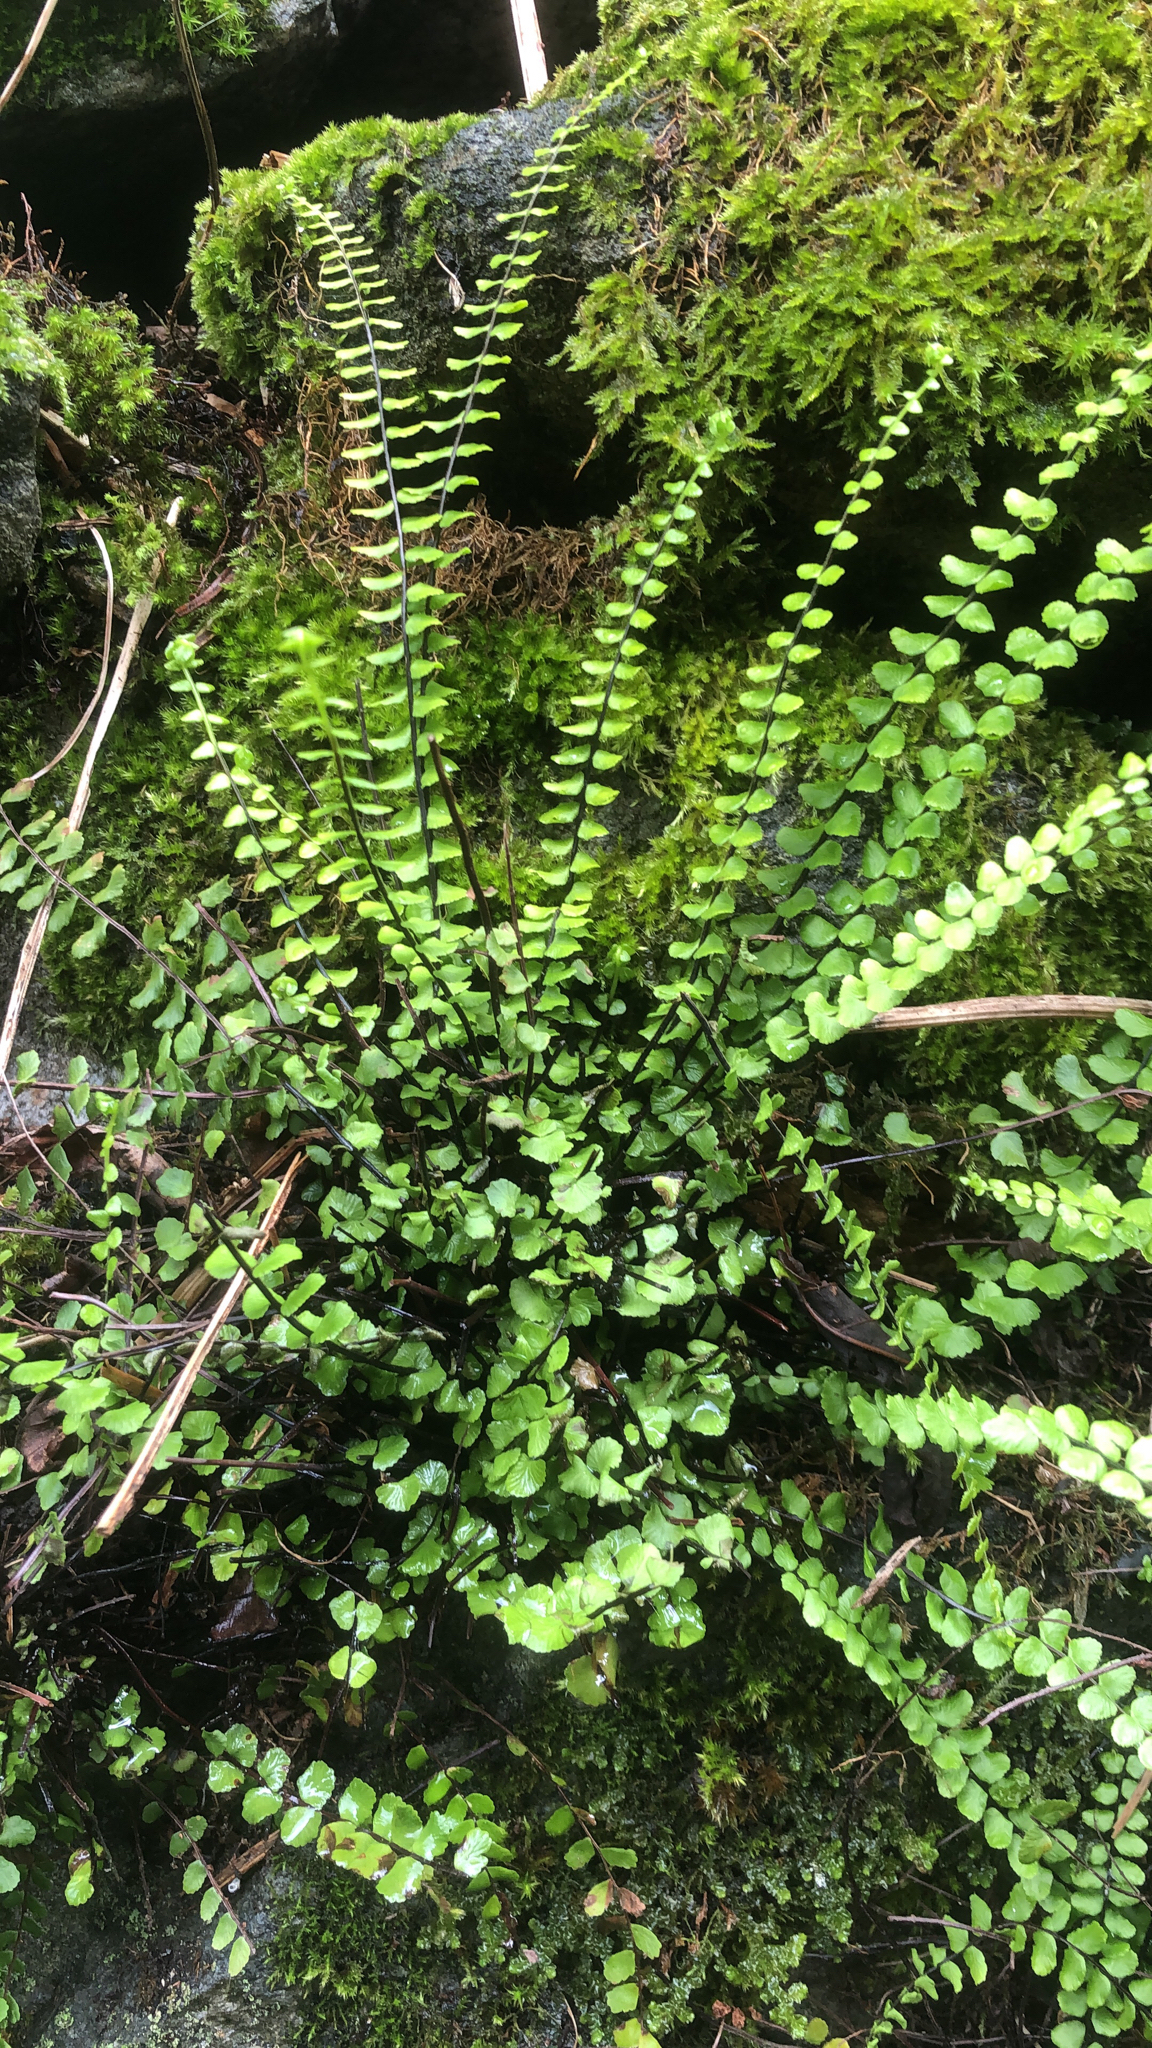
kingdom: Plantae
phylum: Tracheophyta
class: Polypodiopsida
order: Polypodiales
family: Aspleniaceae
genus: Asplenium
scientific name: Asplenium trichomanes
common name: Maidenhair spleenwort
